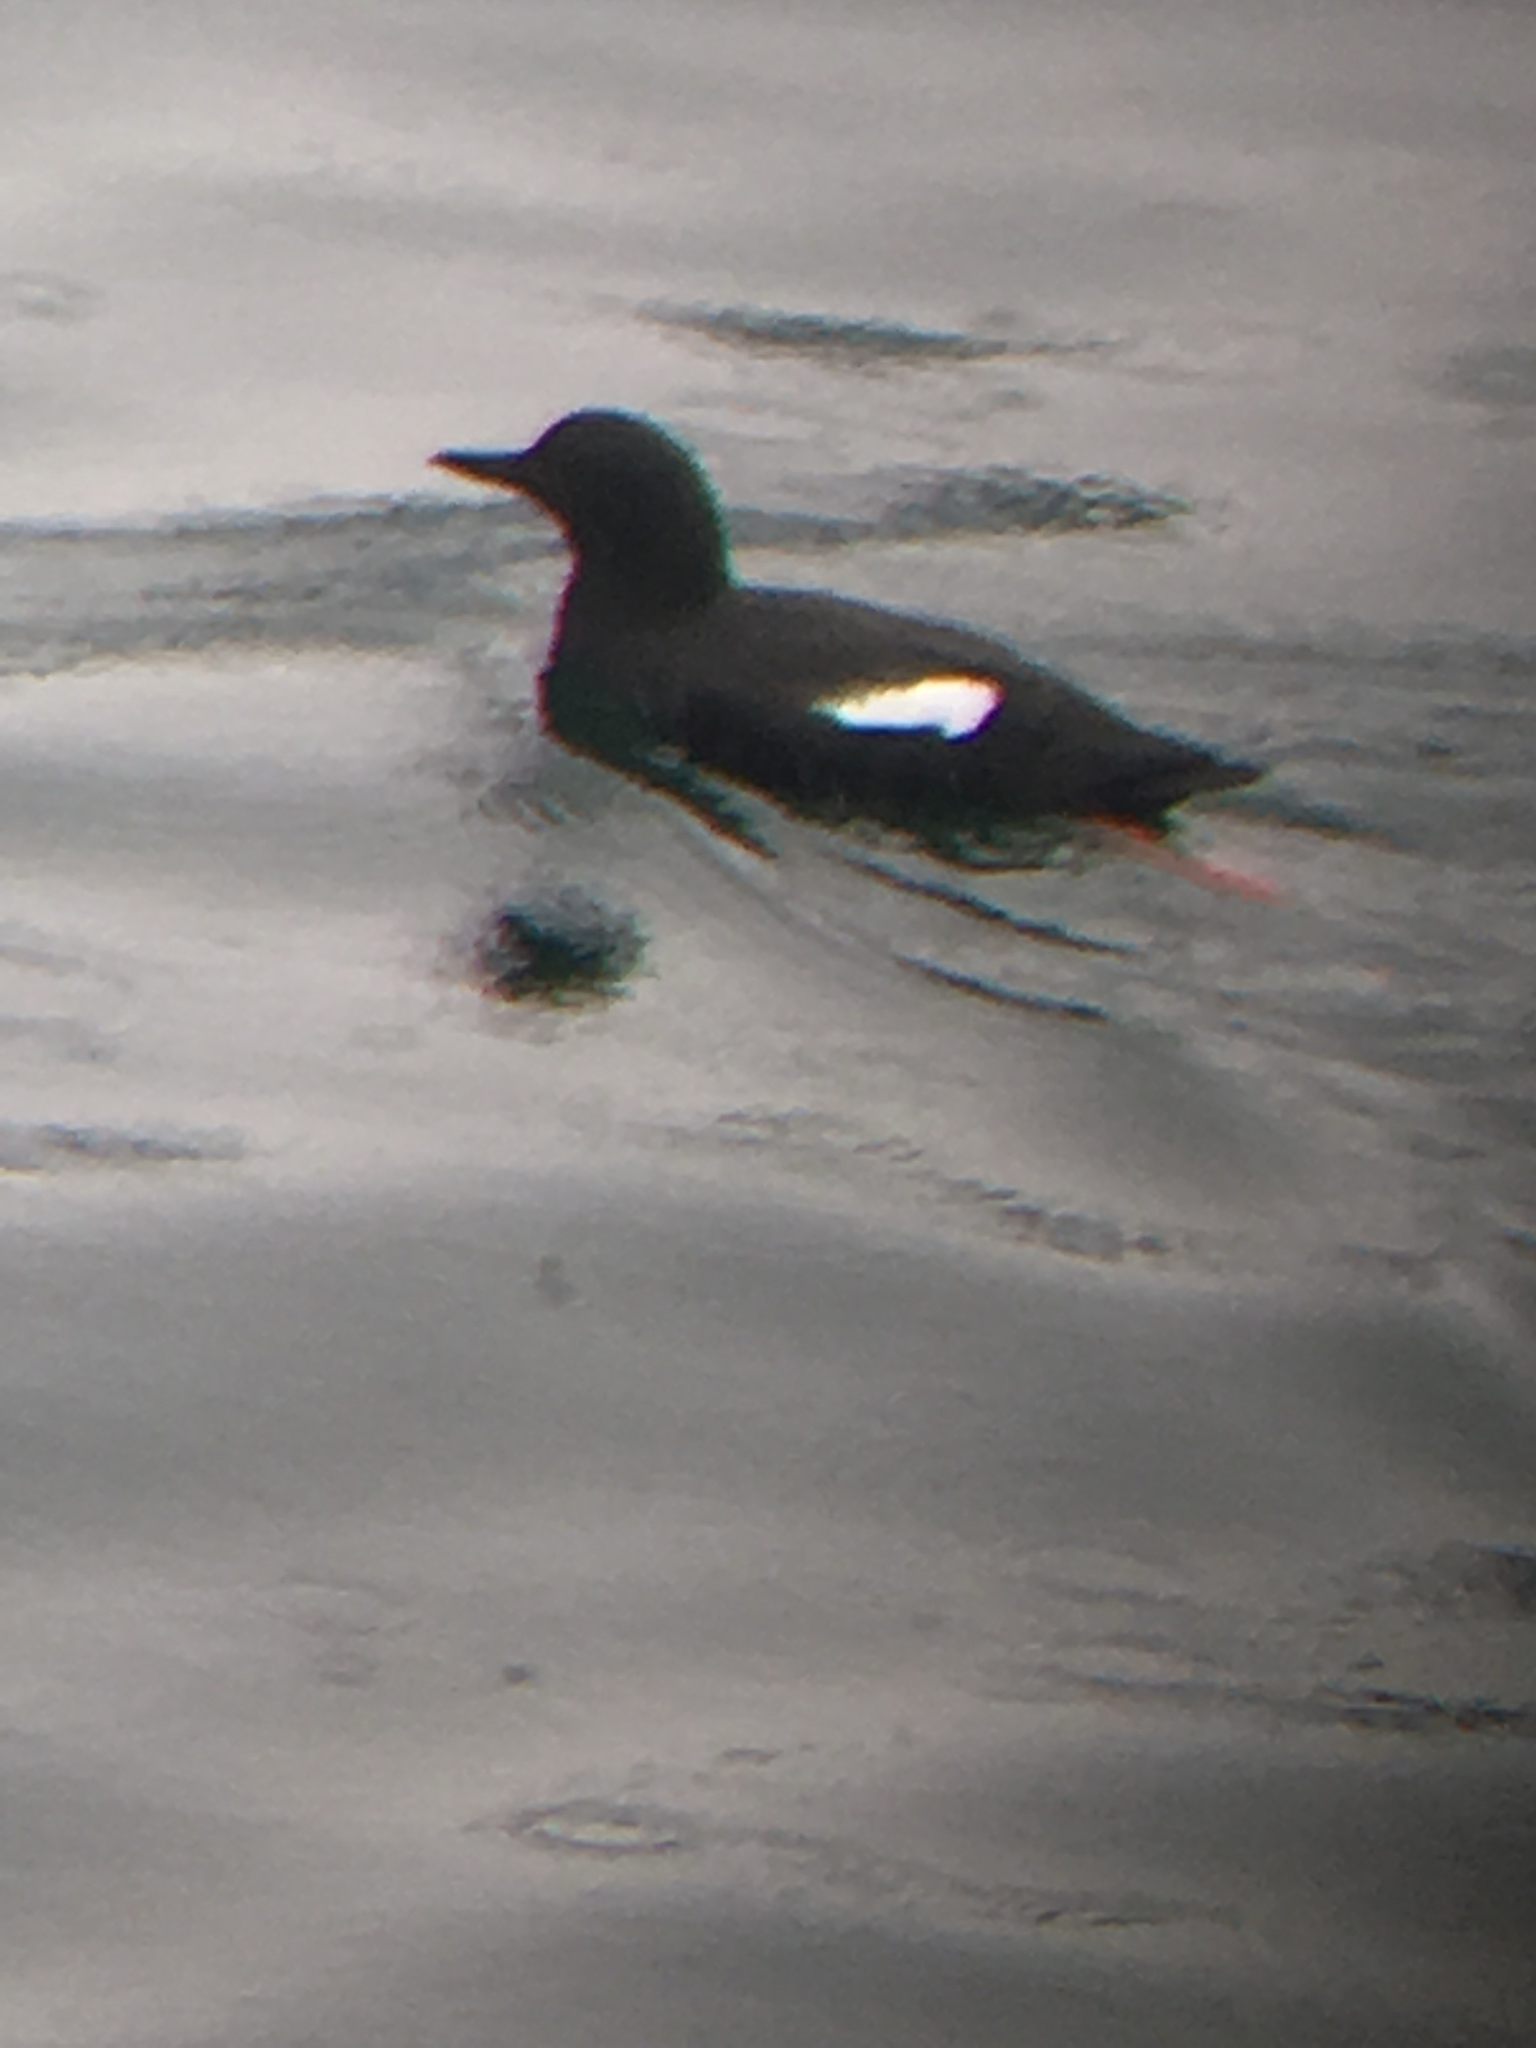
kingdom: Animalia
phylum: Chordata
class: Aves
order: Charadriiformes
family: Alcidae
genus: Cepphus
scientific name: Cepphus columba
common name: Pigeon guillemot
